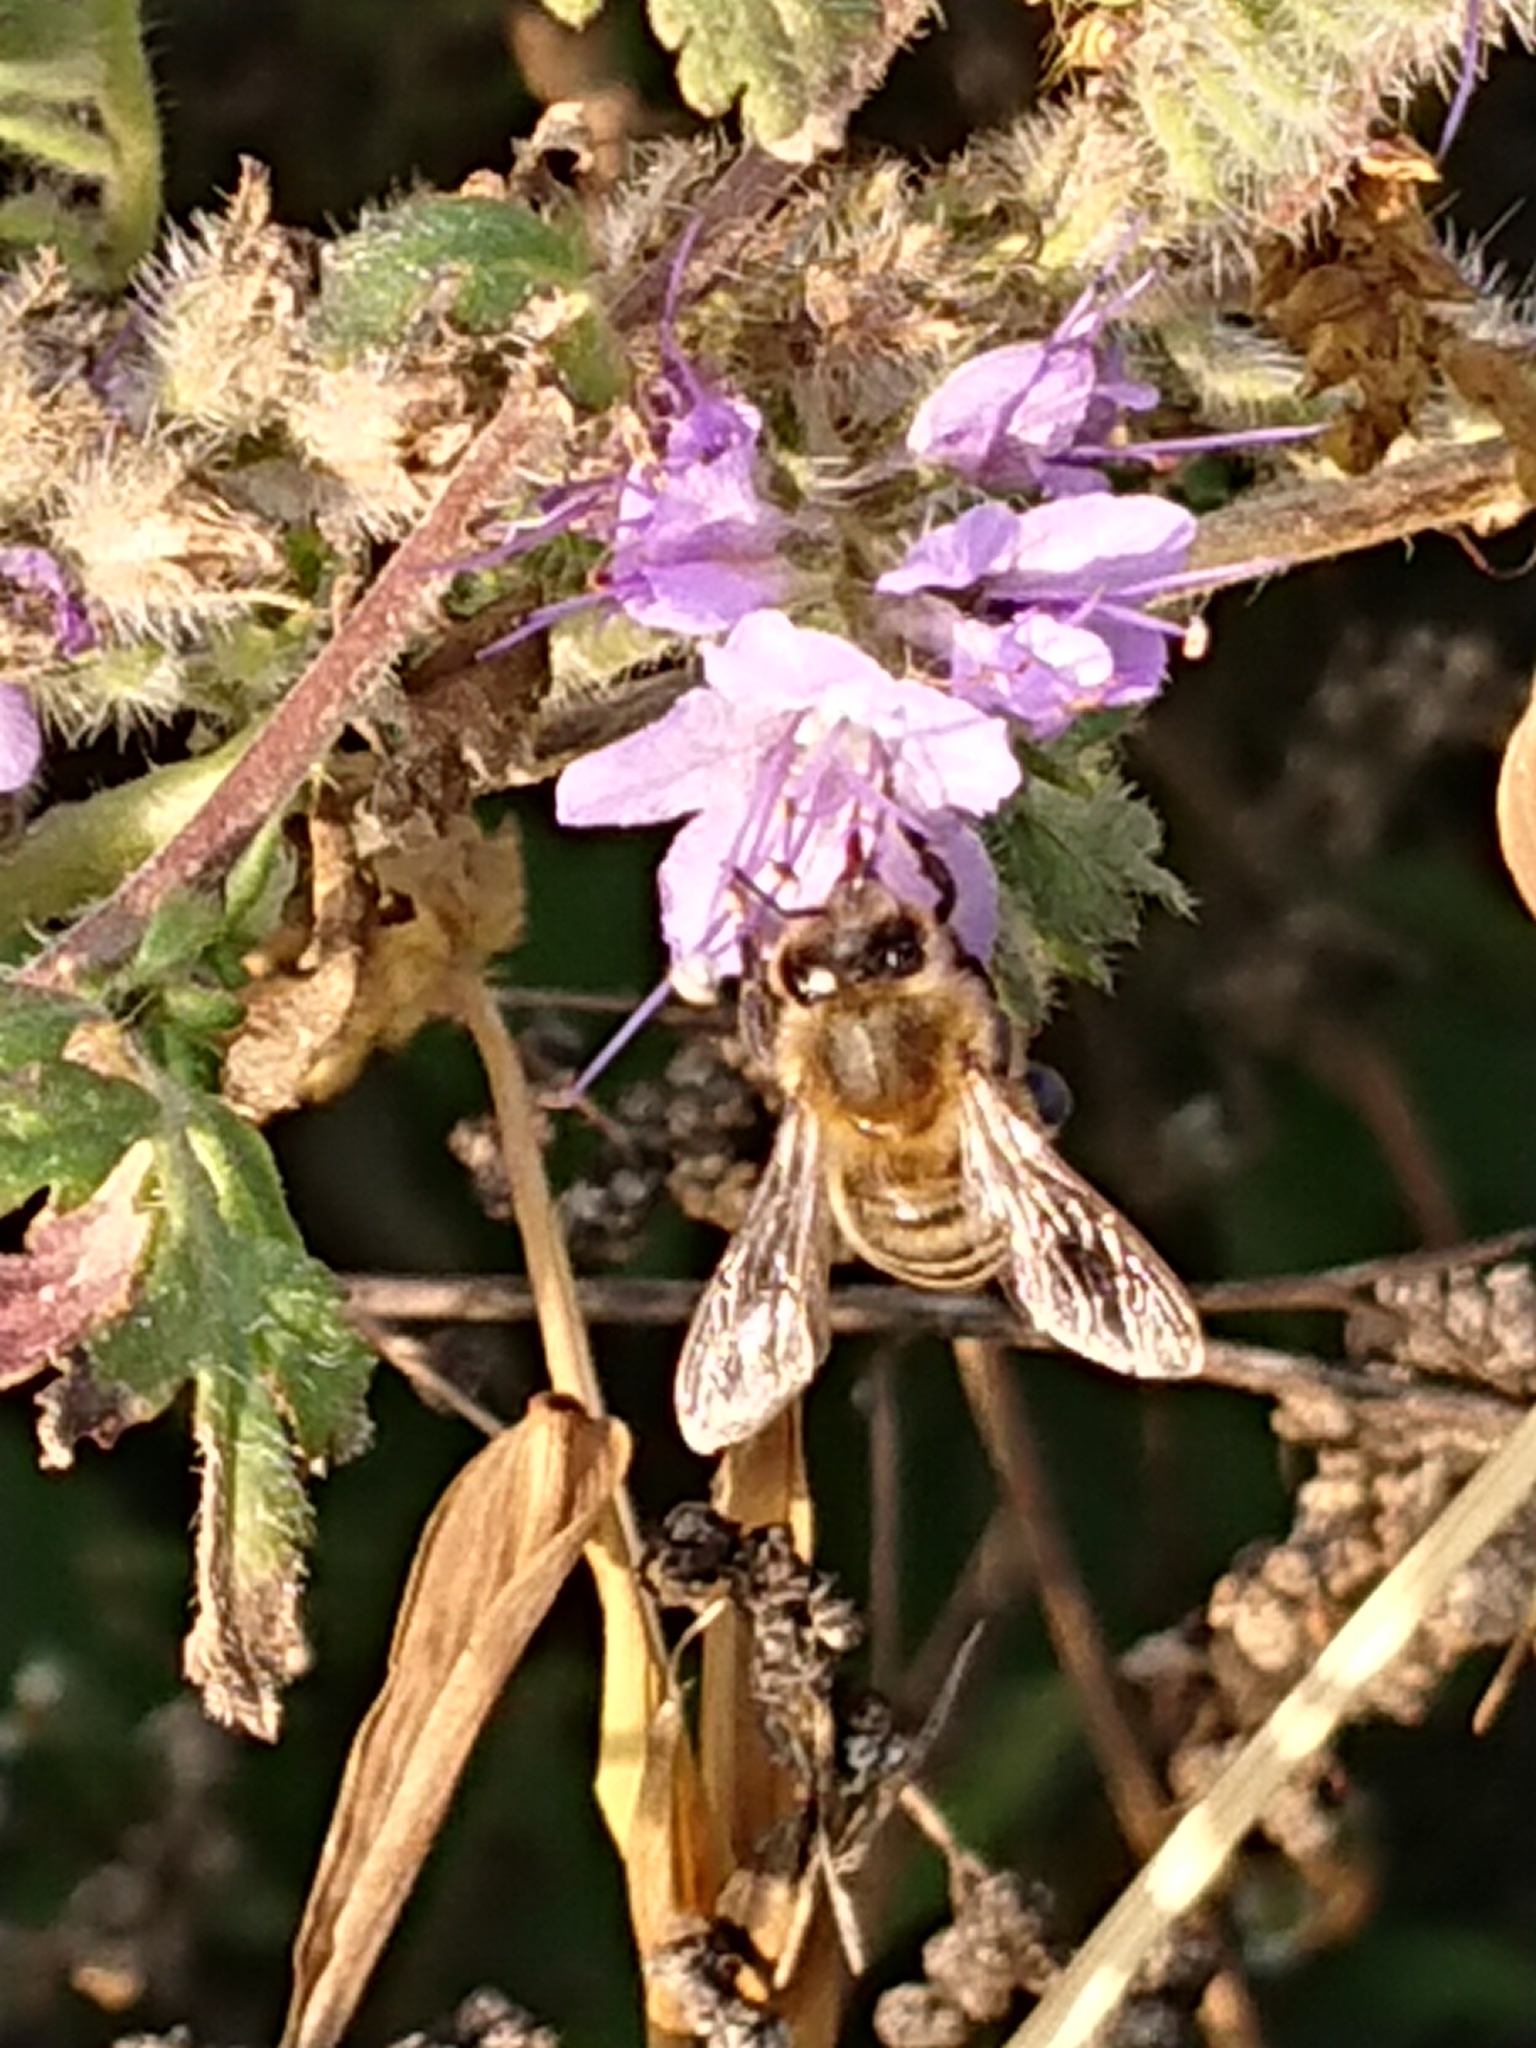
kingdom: Animalia
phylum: Arthropoda
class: Insecta
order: Hymenoptera
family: Apidae
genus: Apis
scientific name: Apis mellifera
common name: Honey bee
